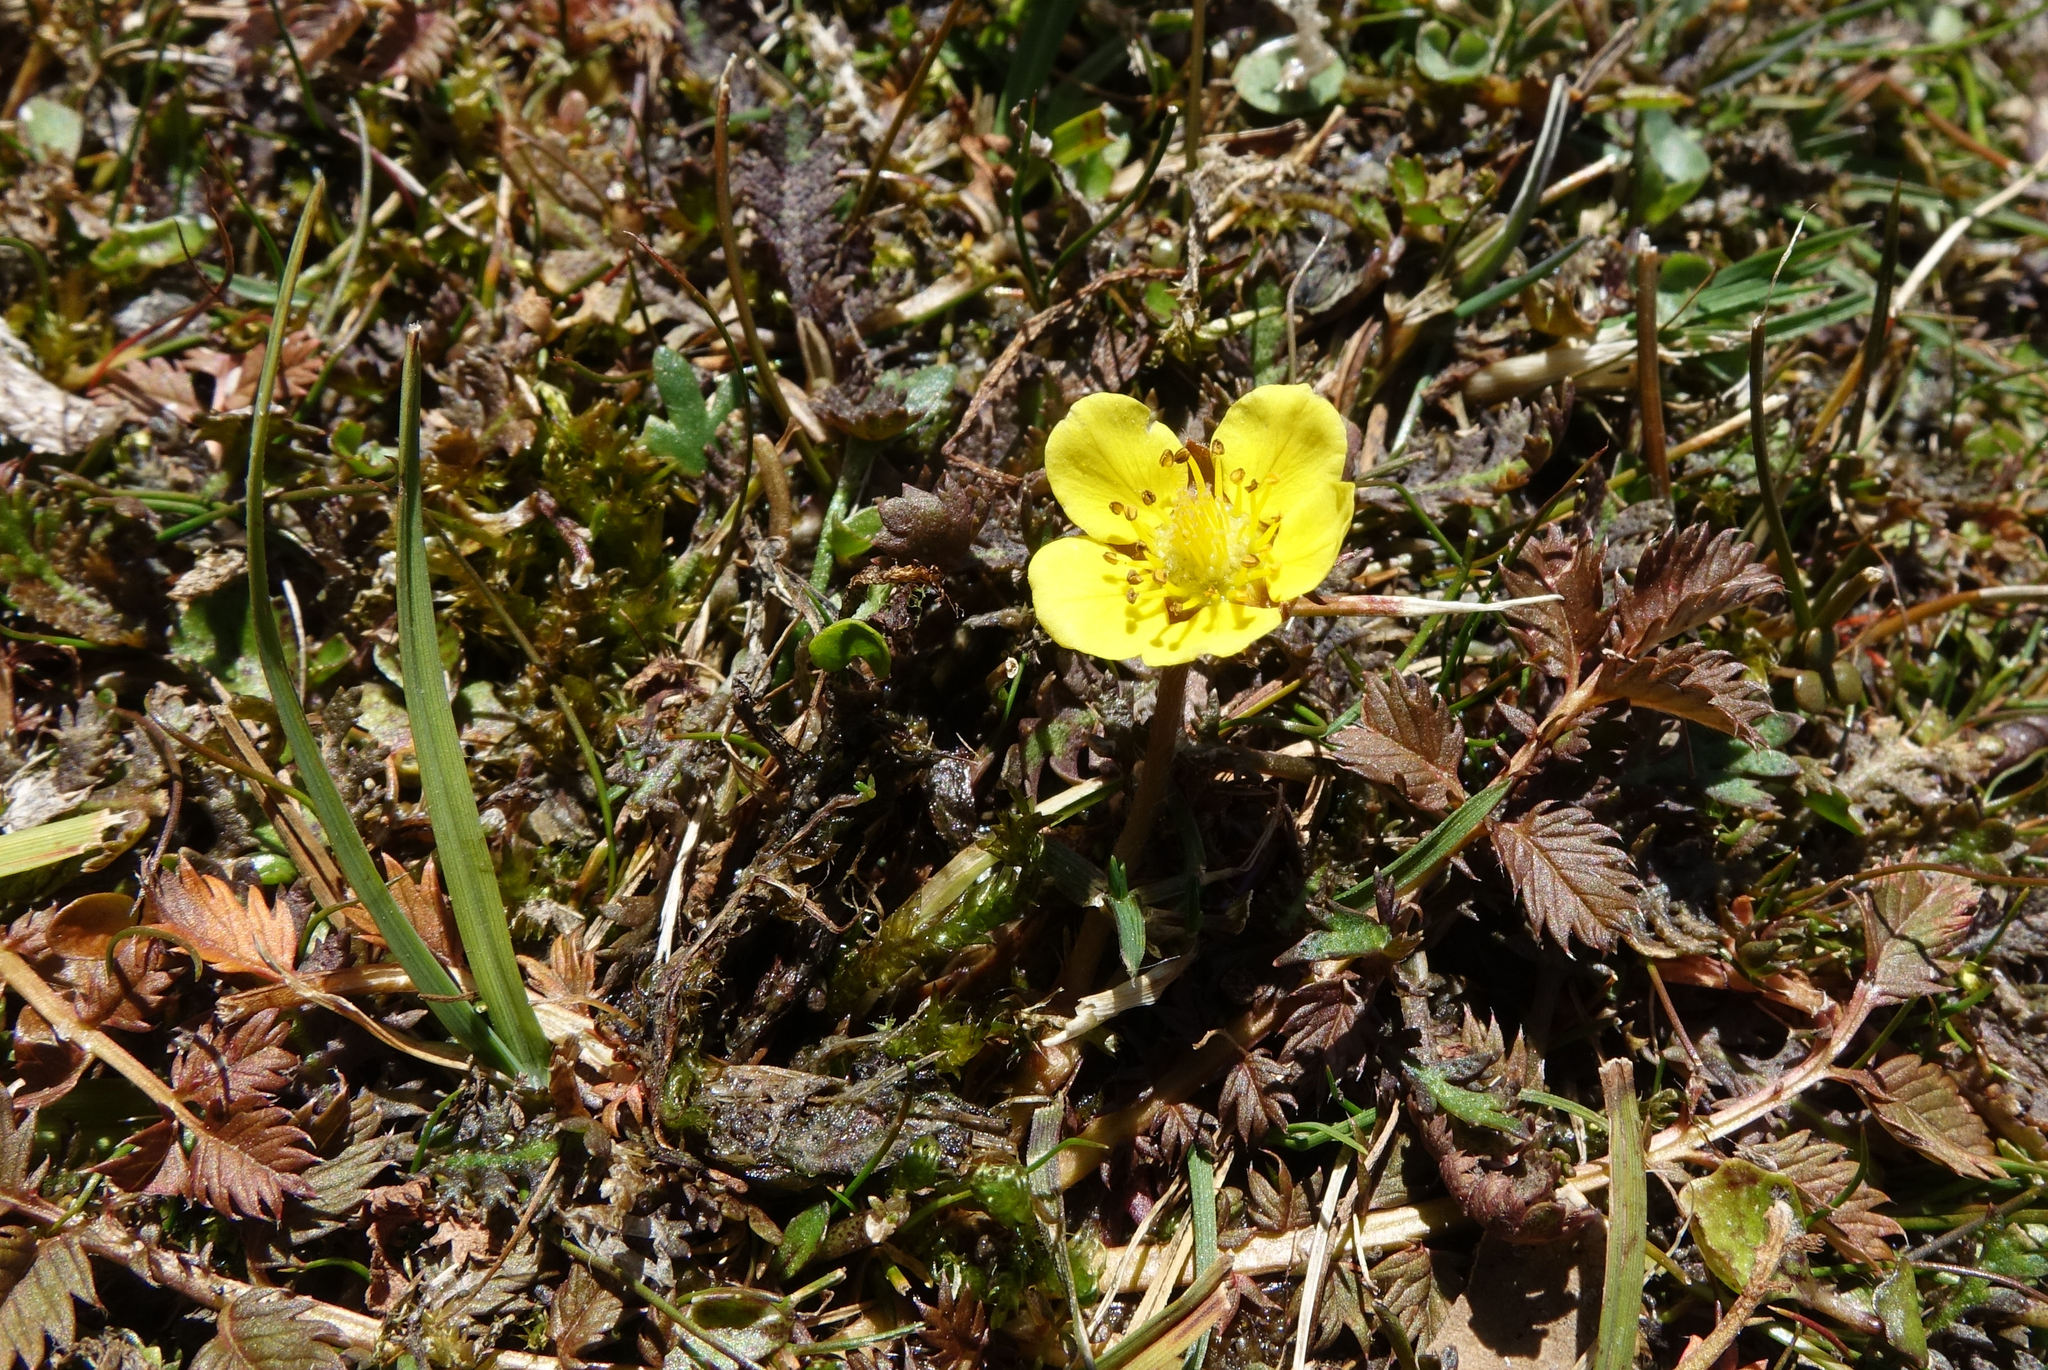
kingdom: Plantae
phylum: Tracheophyta
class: Magnoliopsida
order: Rosales
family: Rosaceae
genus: Argentina
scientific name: Argentina anserinoides
